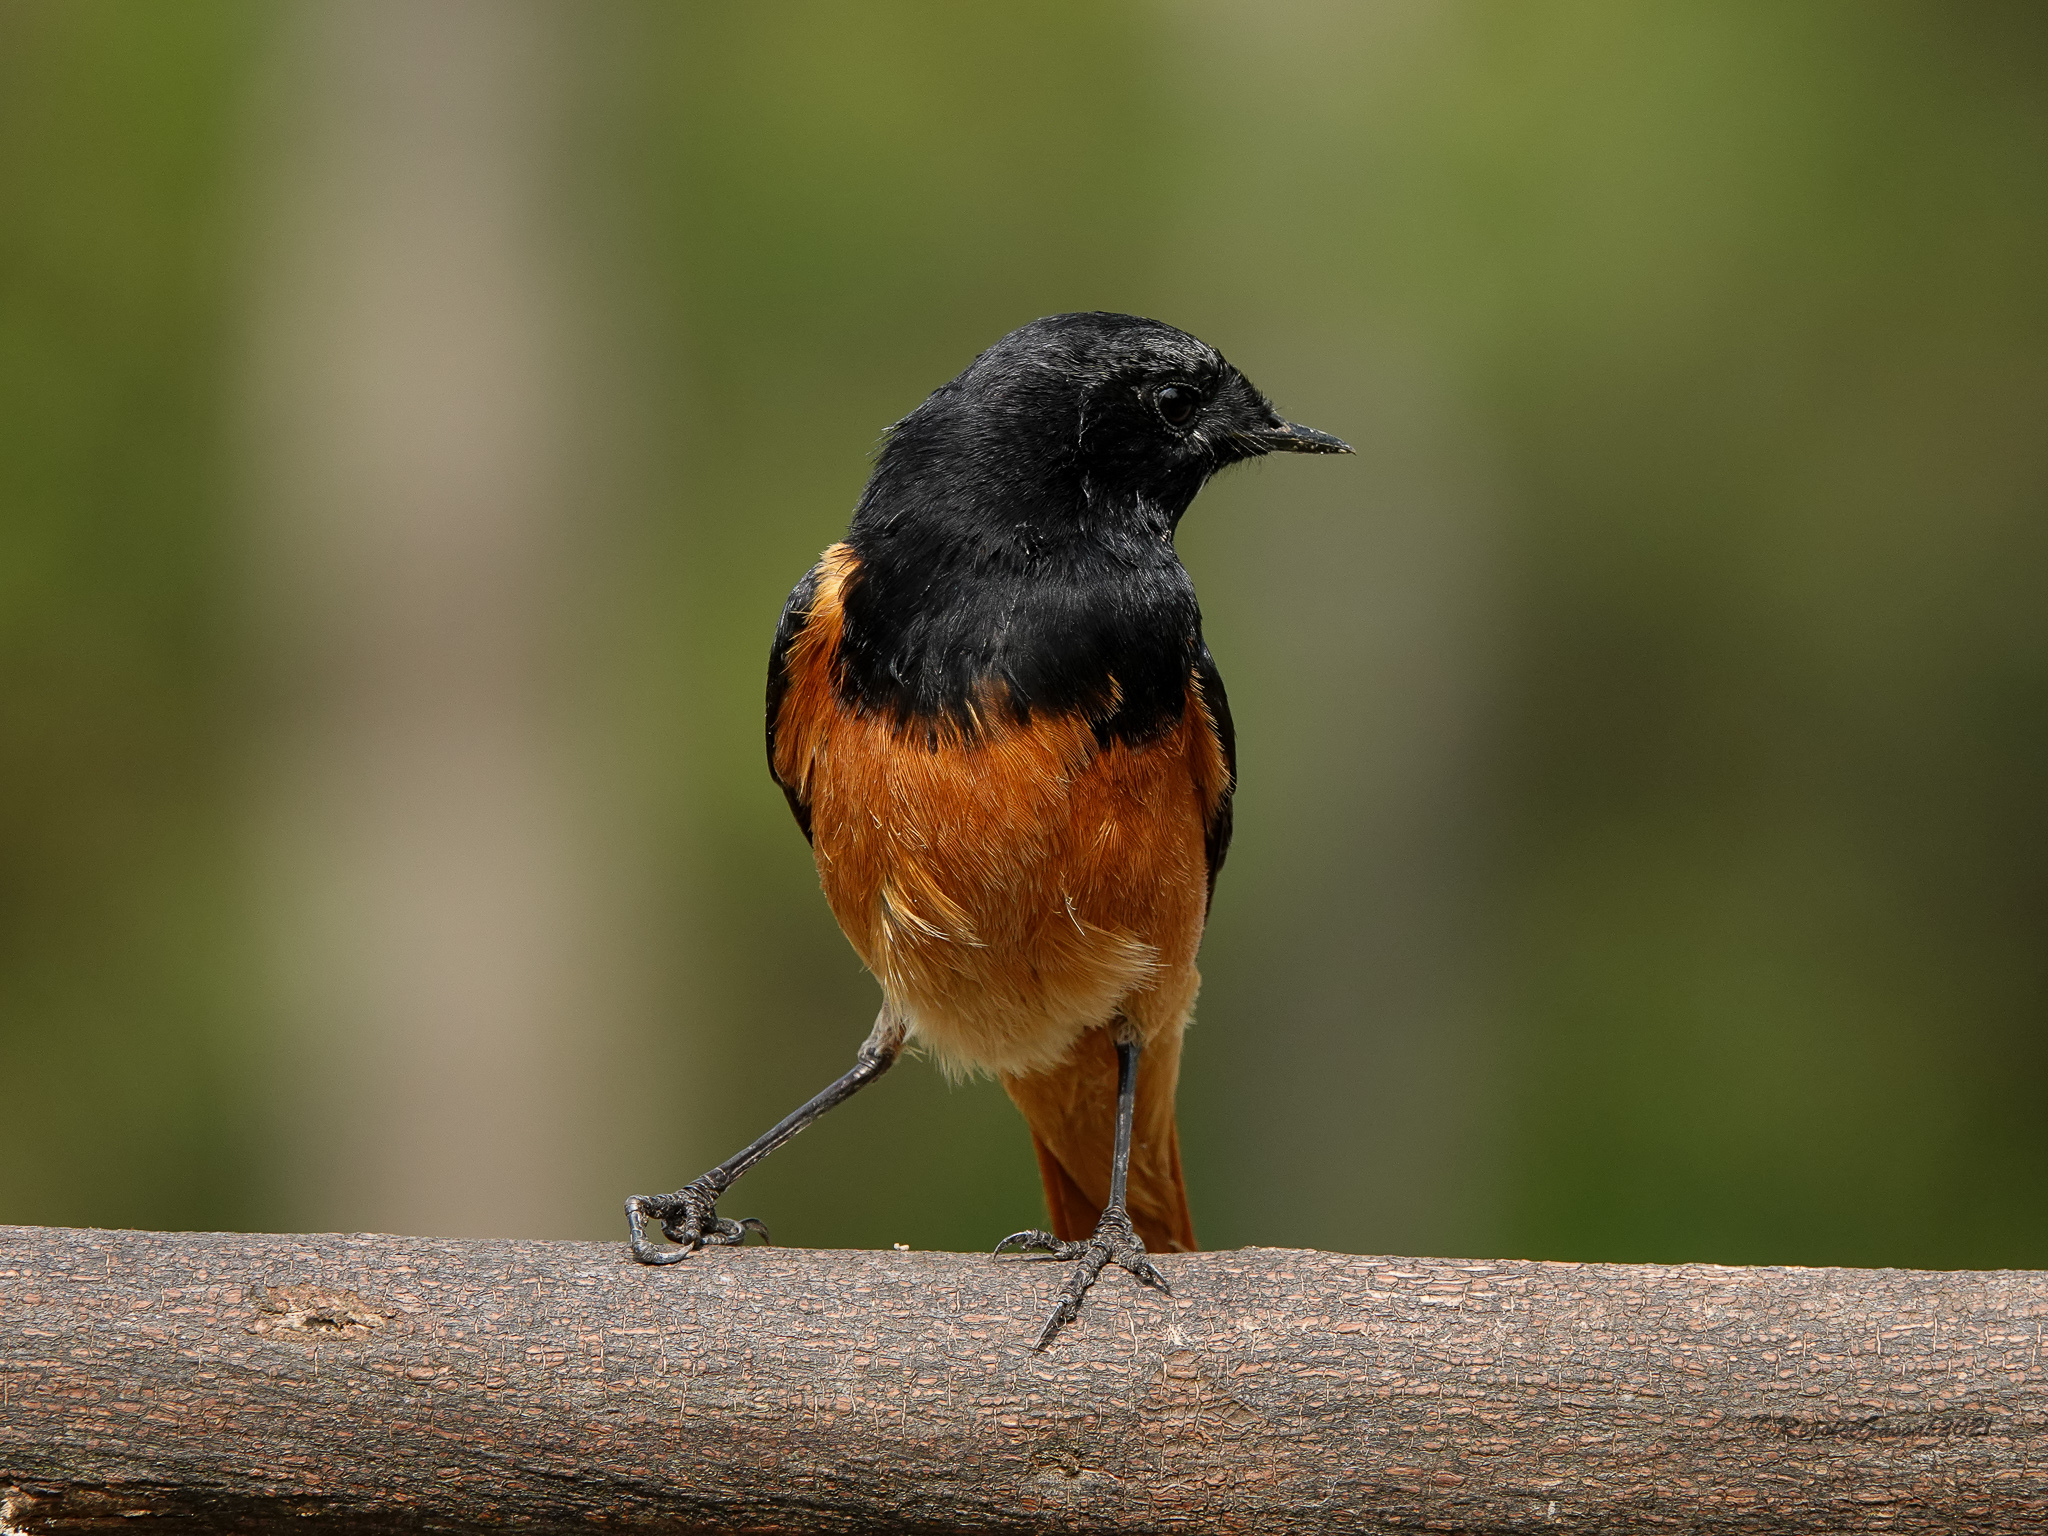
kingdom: Animalia
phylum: Chordata
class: Aves
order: Passeriformes
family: Muscicapidae
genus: Phoenicurus
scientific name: Phoenicurus ochruros
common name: Black redstart
